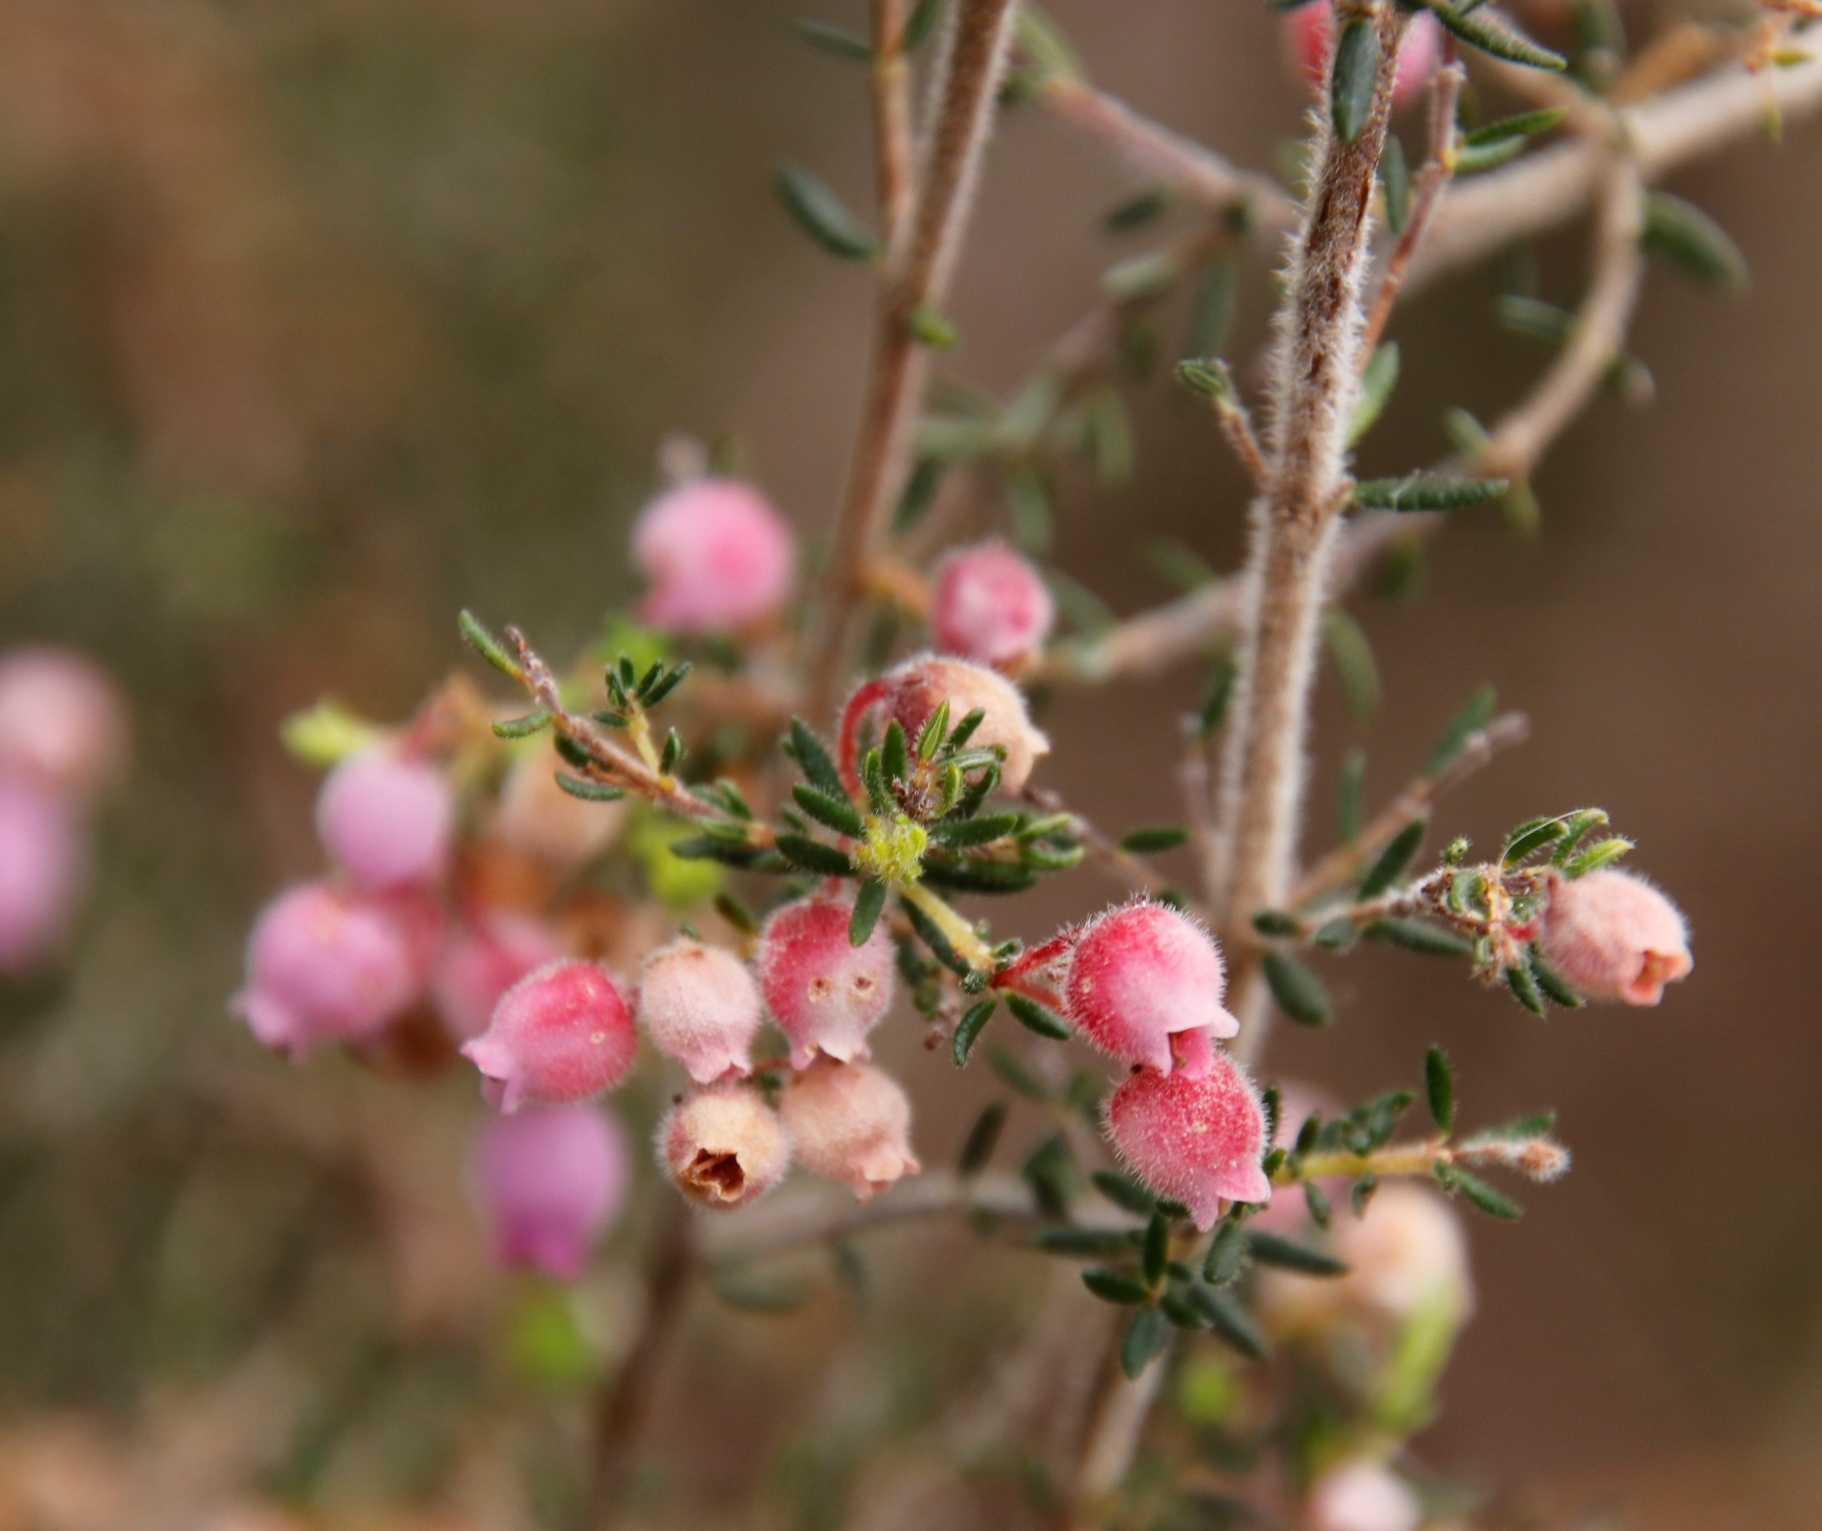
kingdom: Plantae
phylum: Tracheophyta
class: Magnoliopsida
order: Ericales
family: Ericaceae
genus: Erica
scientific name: Erica hirtiflora
